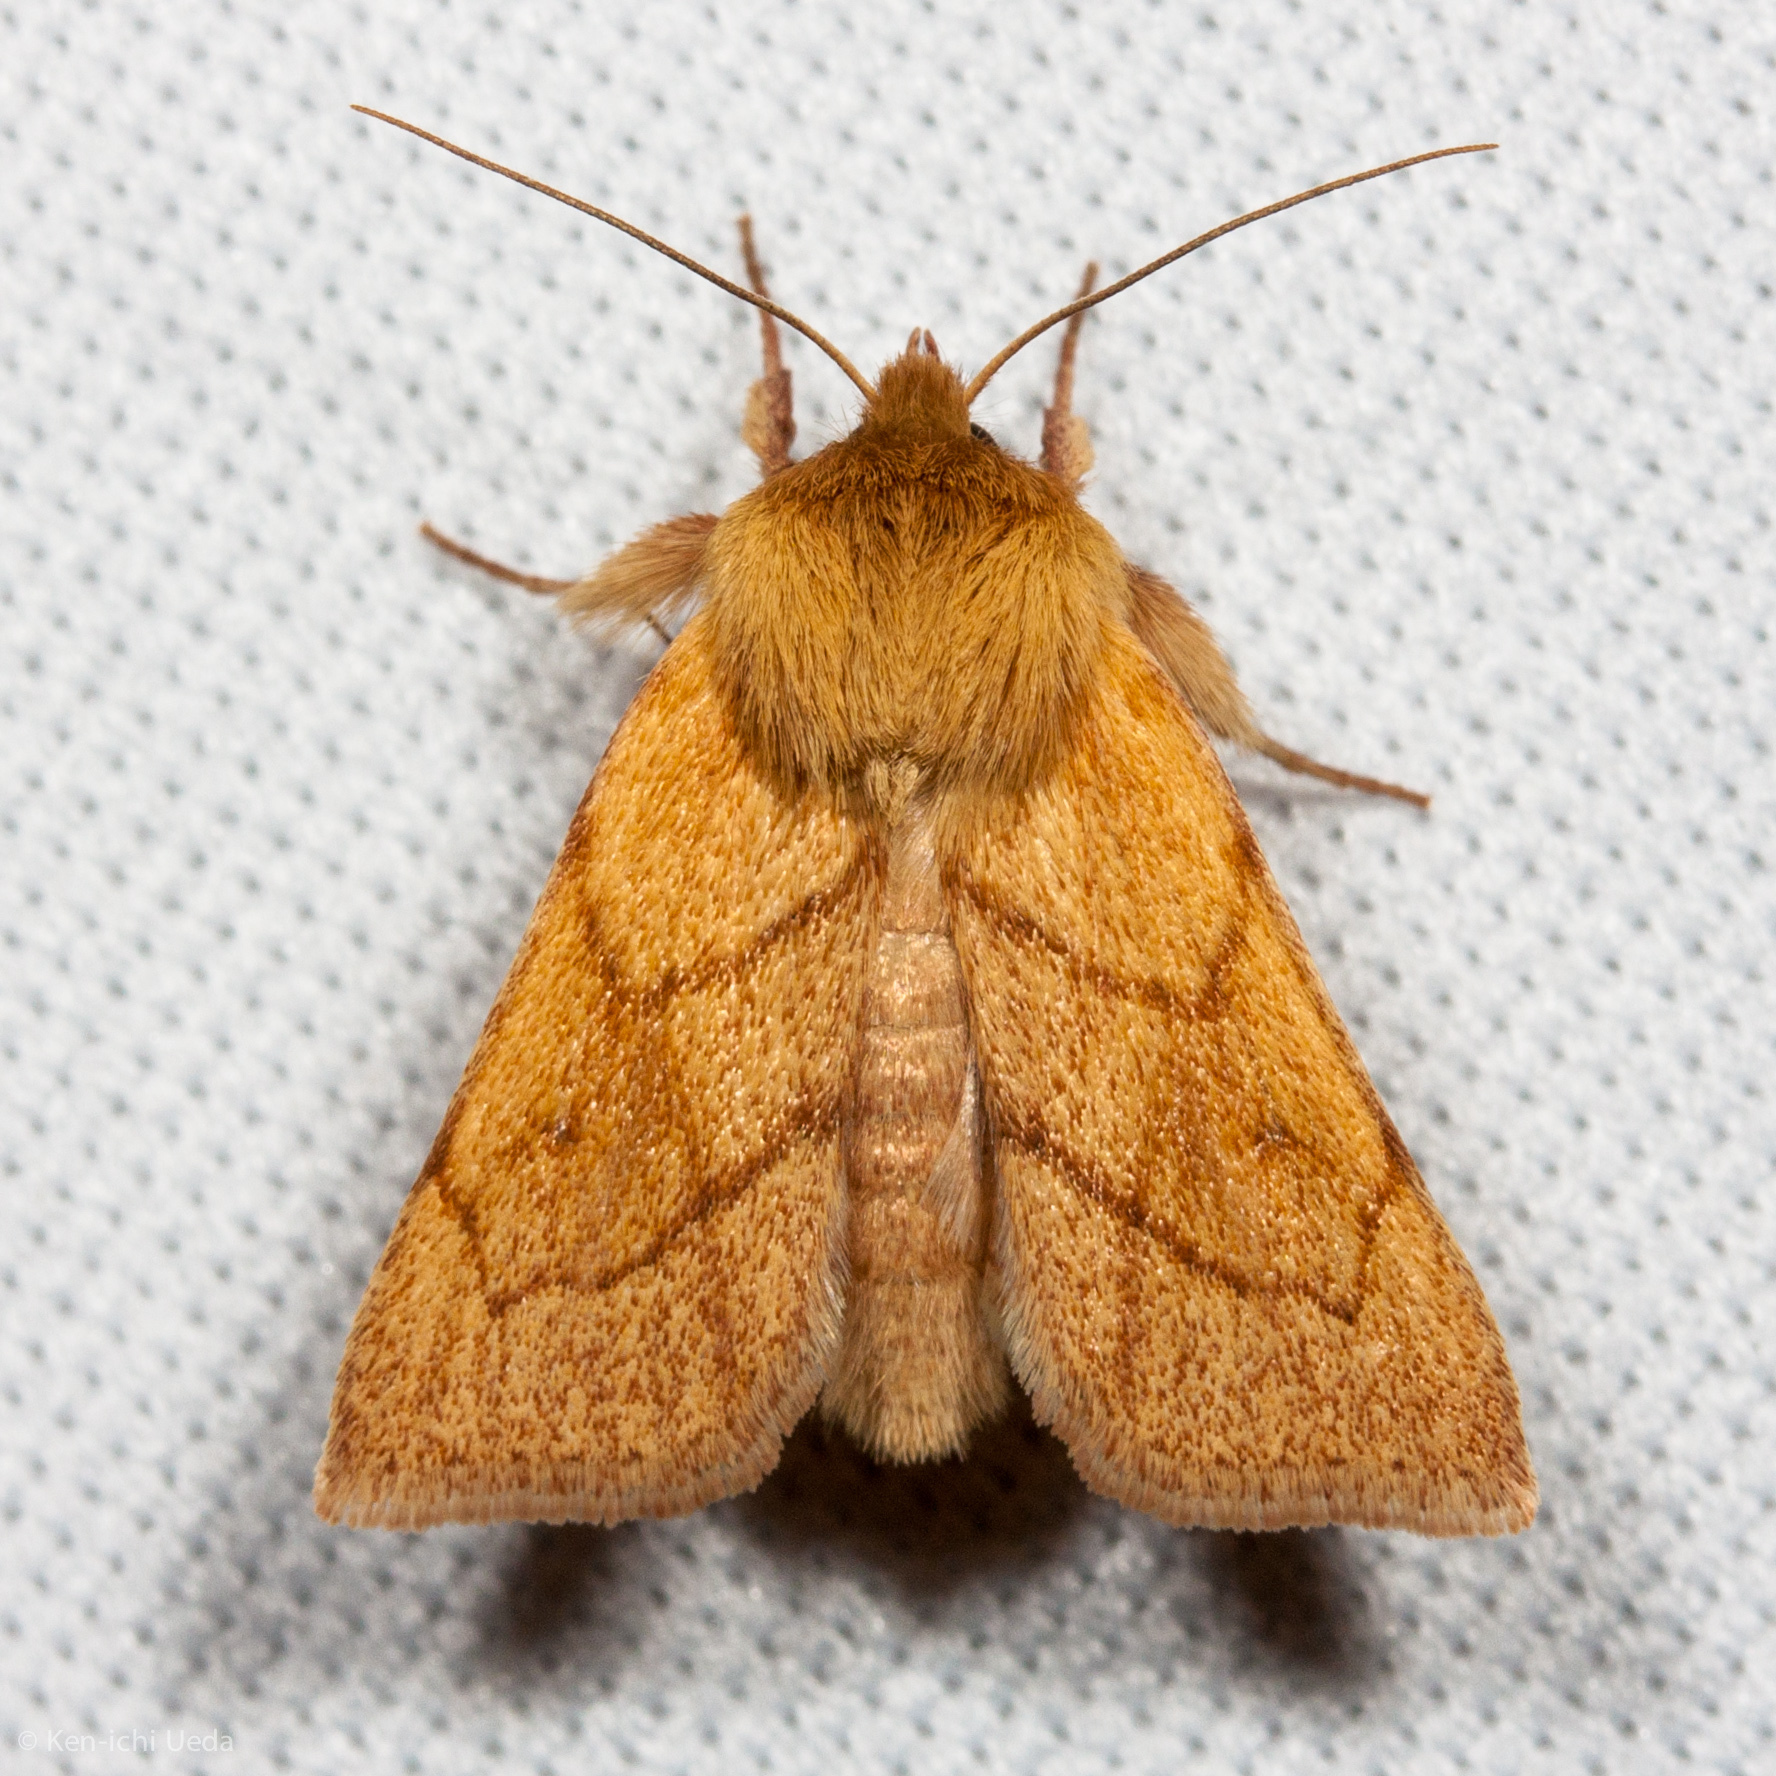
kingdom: Animalia
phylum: Arthropoda
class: Insecta
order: Lepidoptera
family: Noctuidae
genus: Zosteropoda
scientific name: Zosteropoda hirtipes
